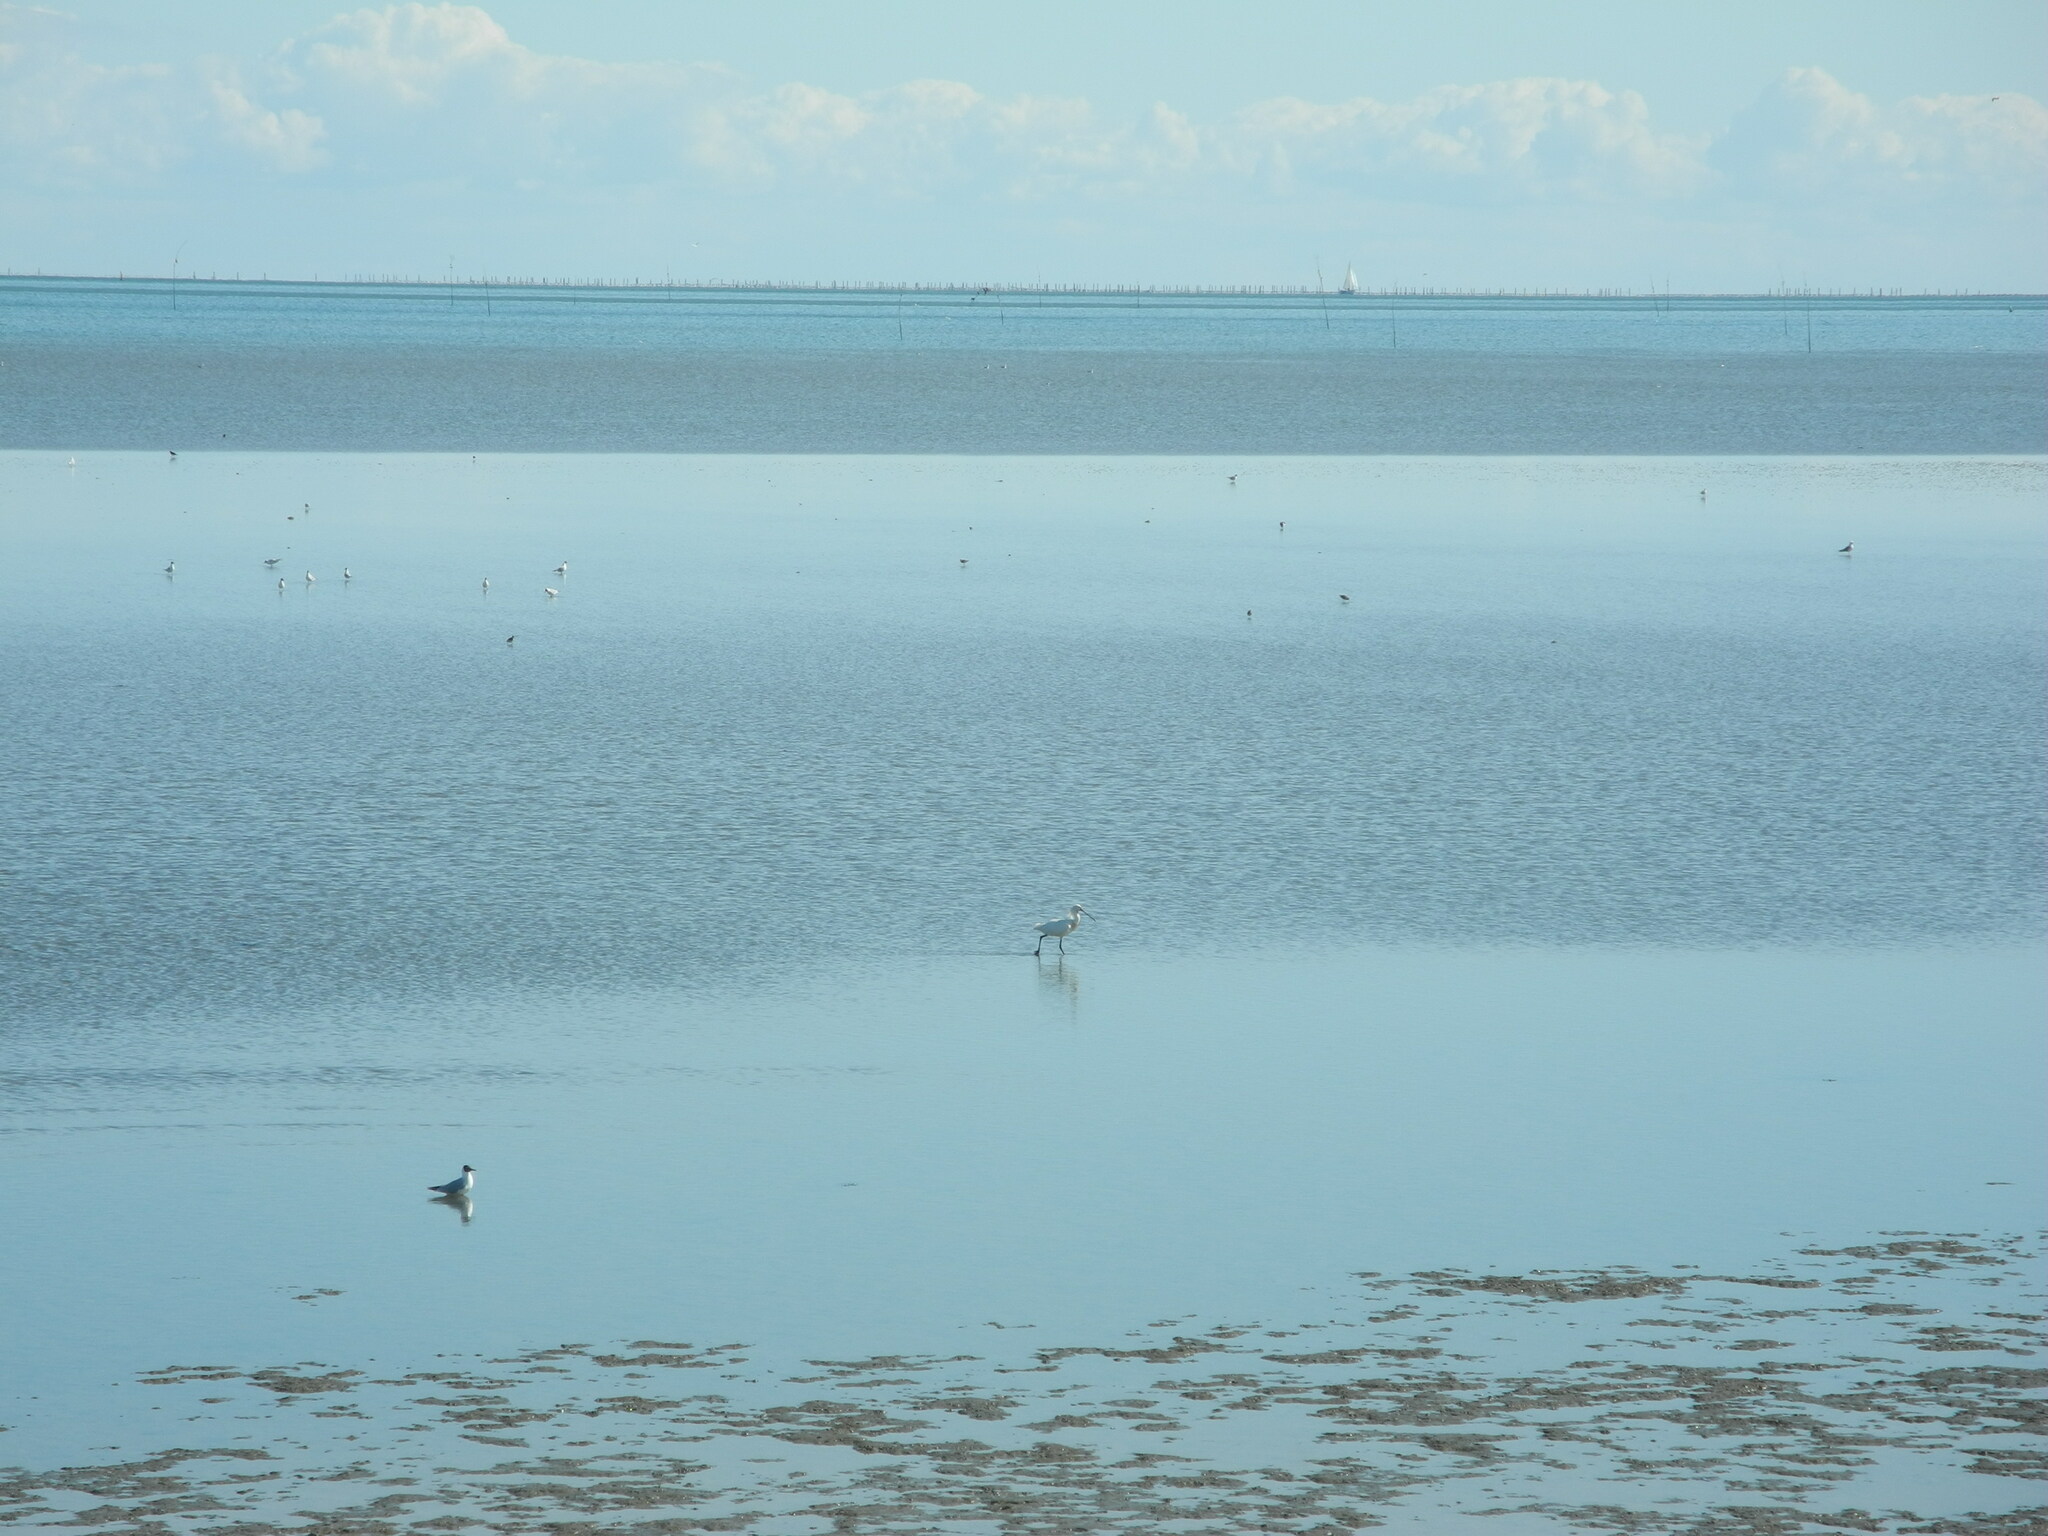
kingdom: Animalia
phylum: Chordata
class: Aves
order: Pelecaniformes
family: Threskiornithidae
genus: Platalea
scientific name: Platalea leucorodia
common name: Eurasian spoonbill
